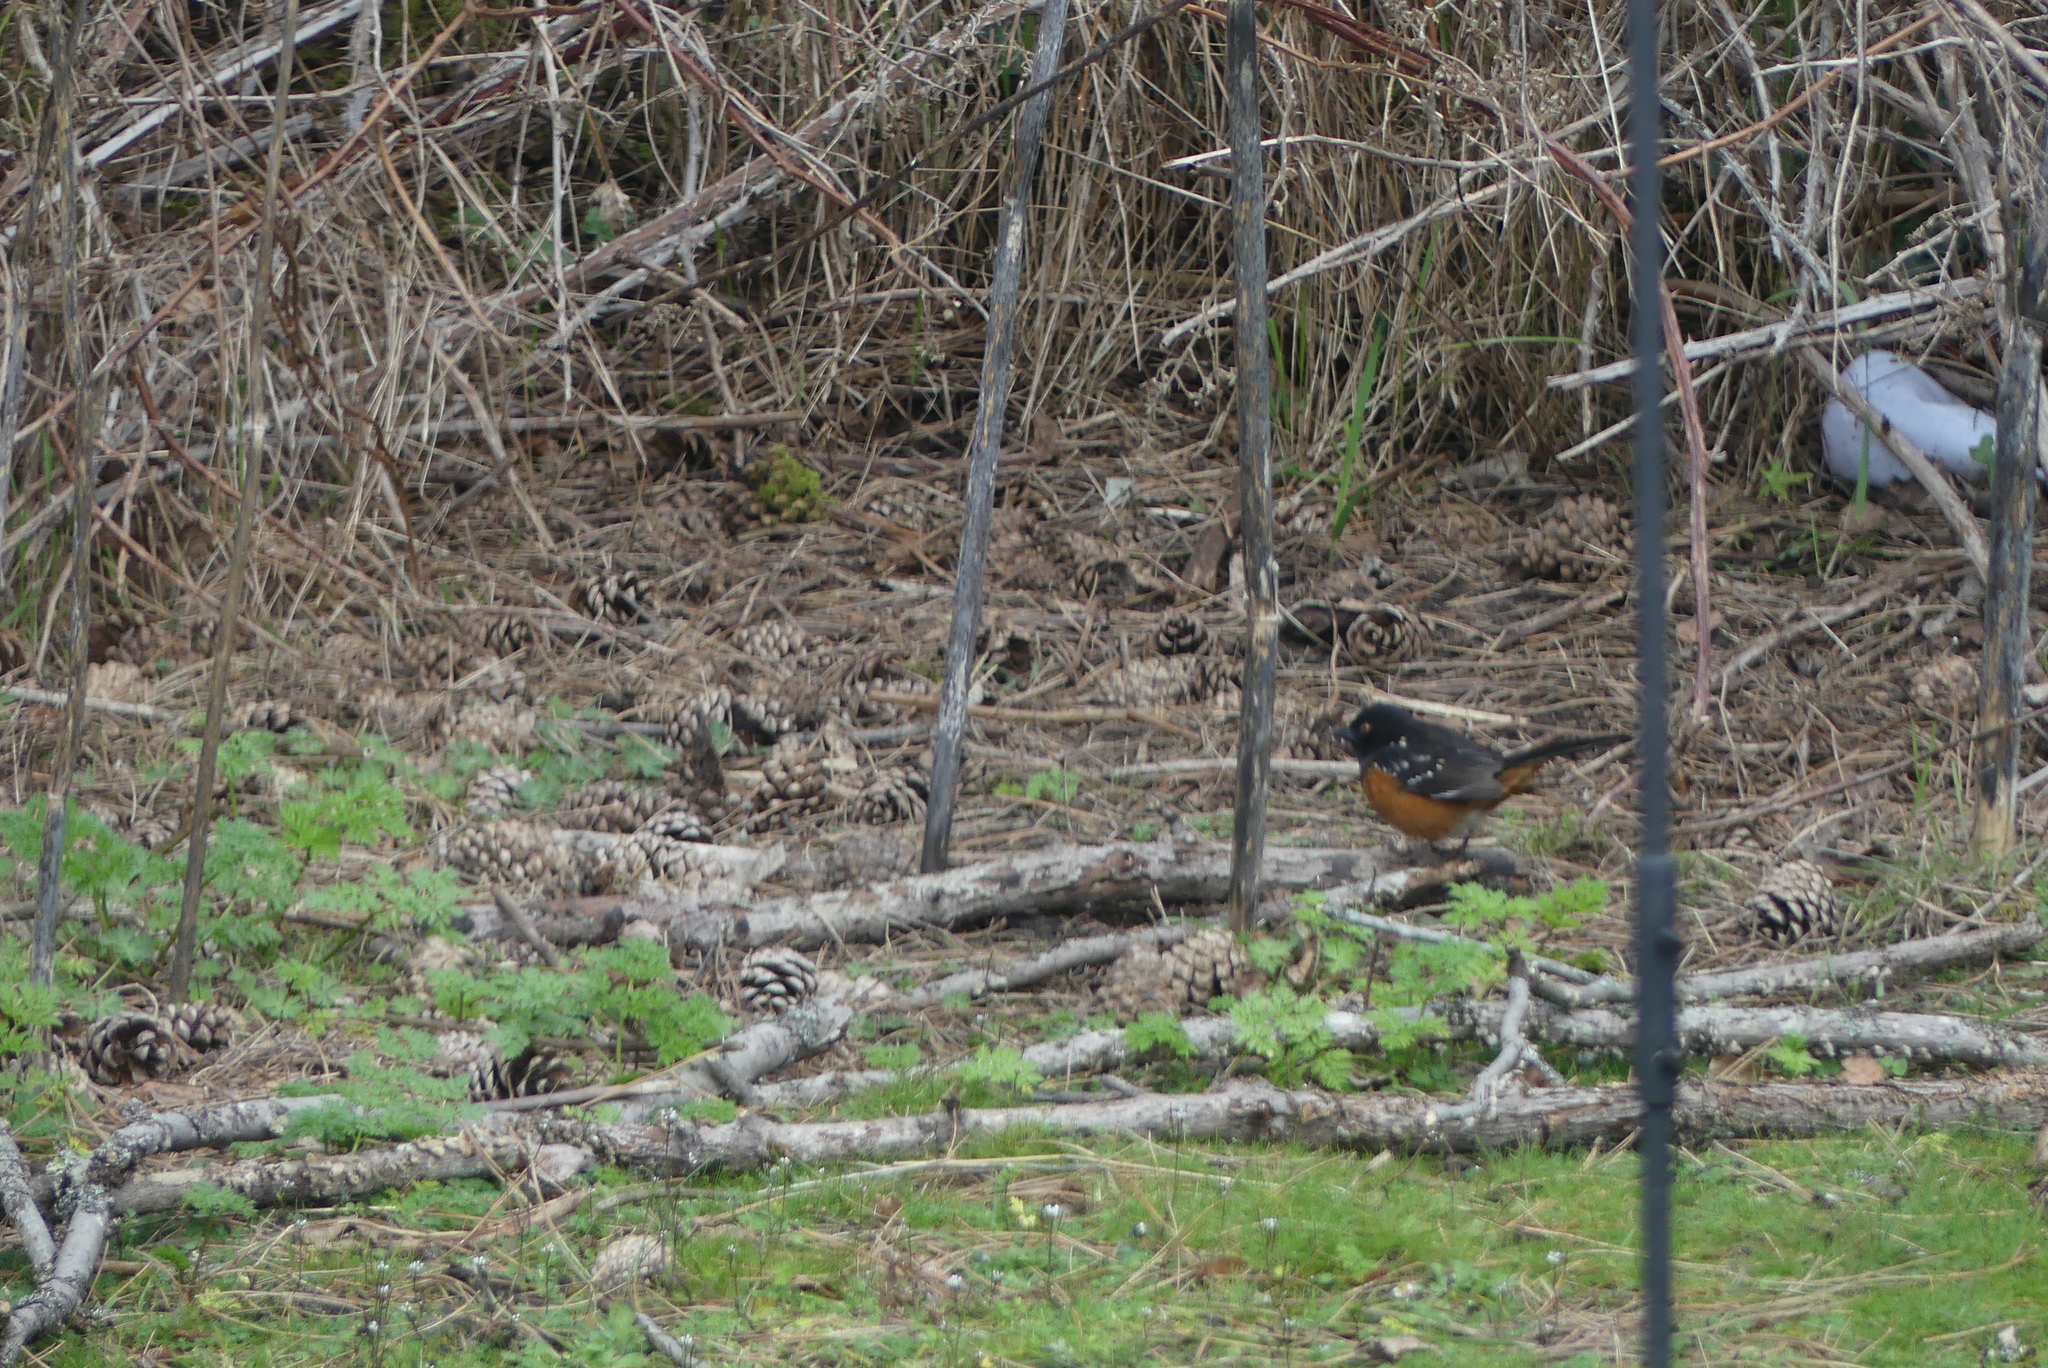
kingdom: Animalia
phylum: Chordata
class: Aves
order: Passeriformes
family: Passerellidae
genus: Pipilo
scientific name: Pipilo maculatus
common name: Spotted towhee
